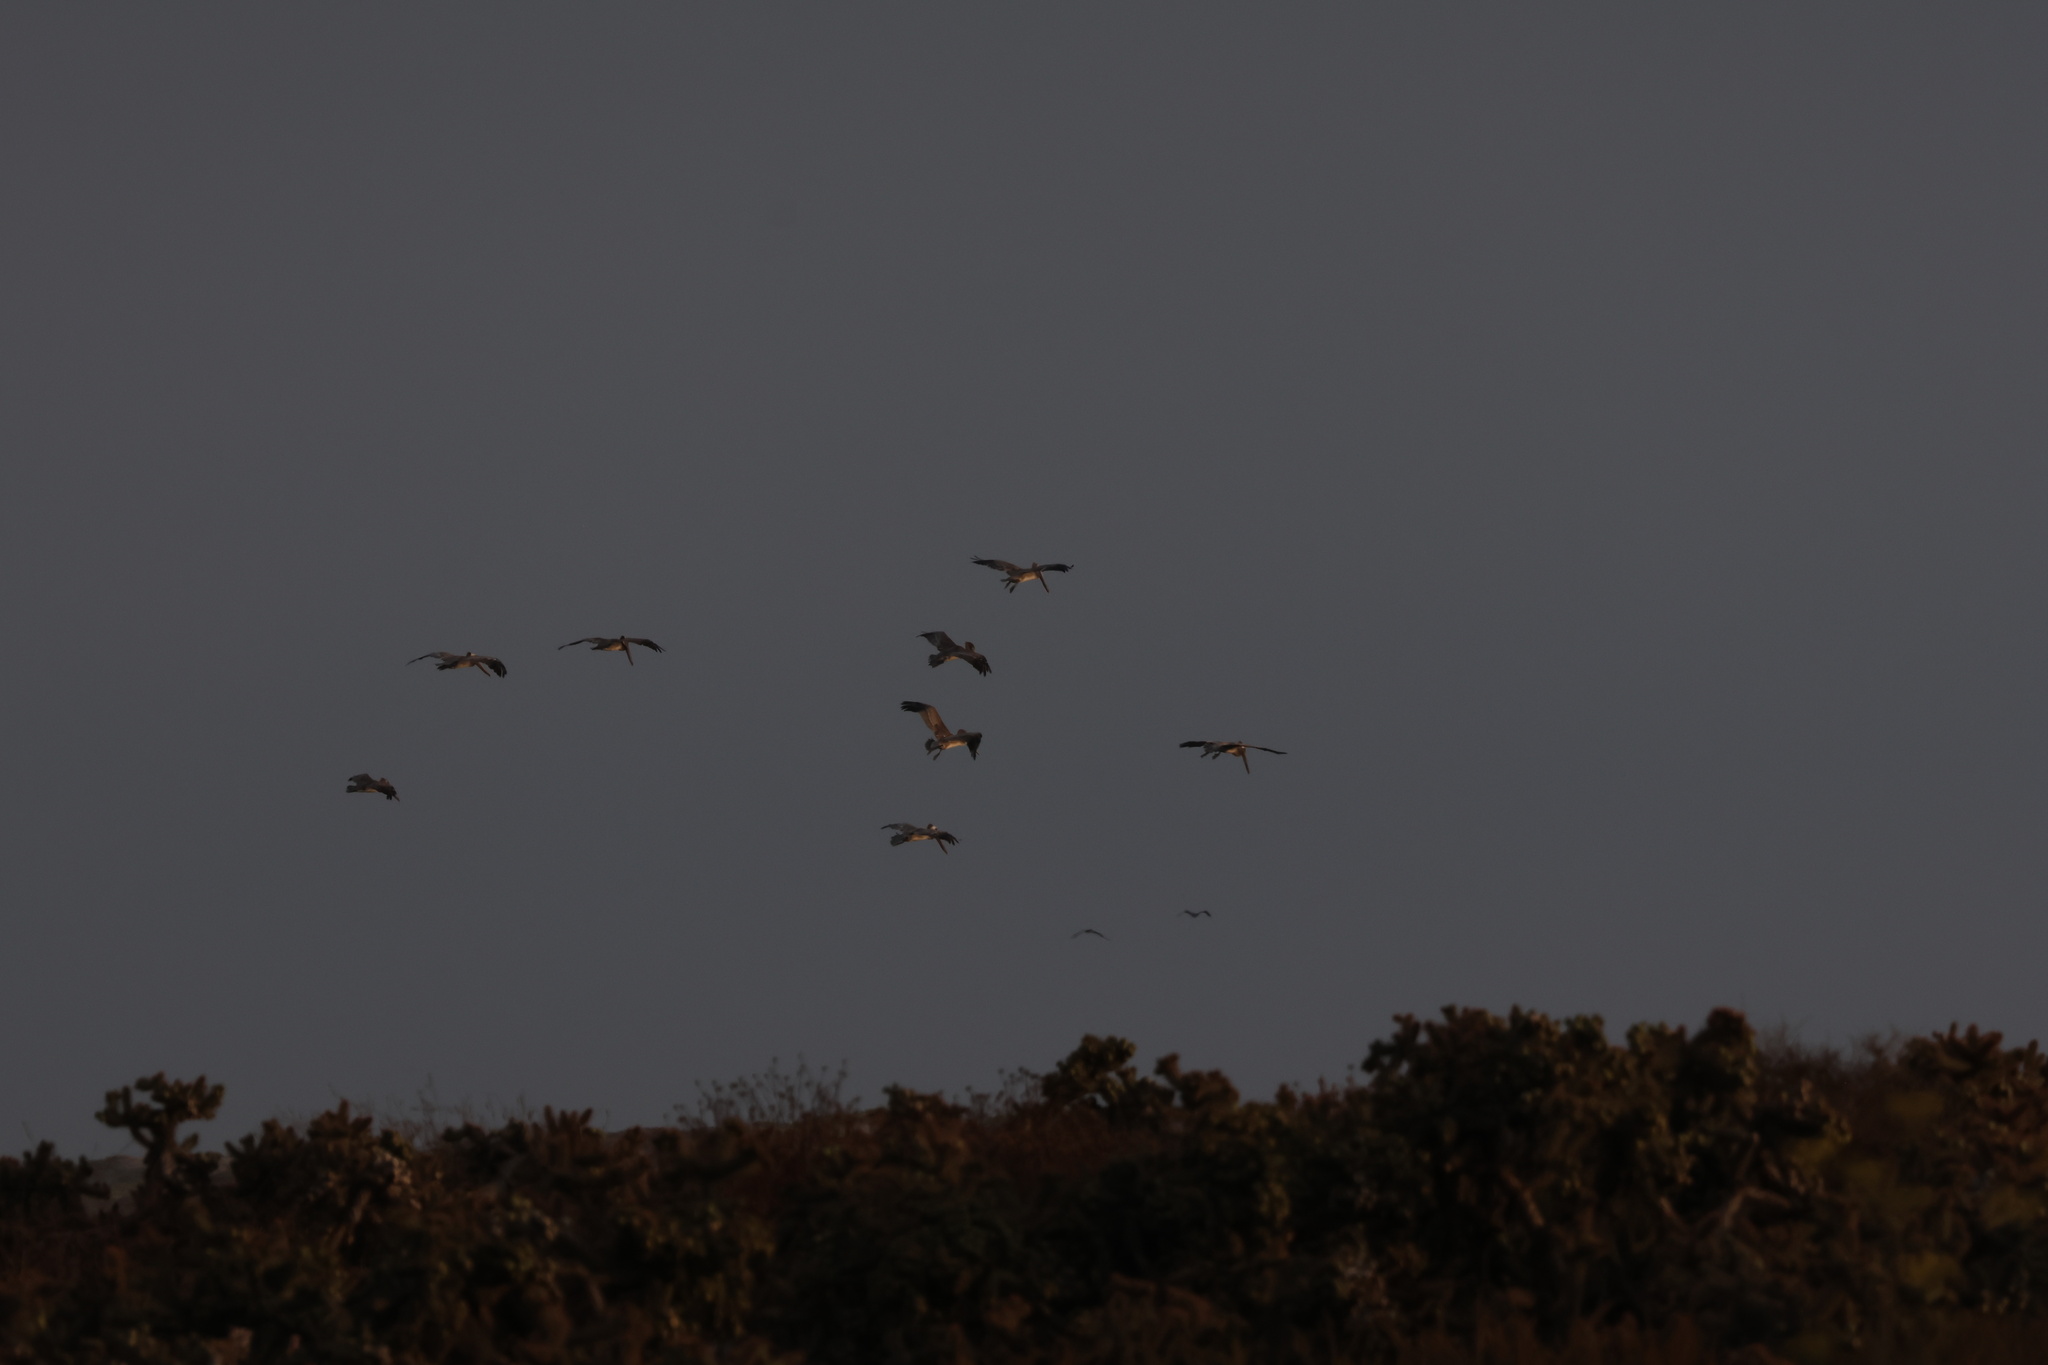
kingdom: Animalia
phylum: Chordata
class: Aves
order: Pelecaniformes
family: Pelecanidae
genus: Pelecanus
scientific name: Pelecanus occidentalis
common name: Brown pelican
